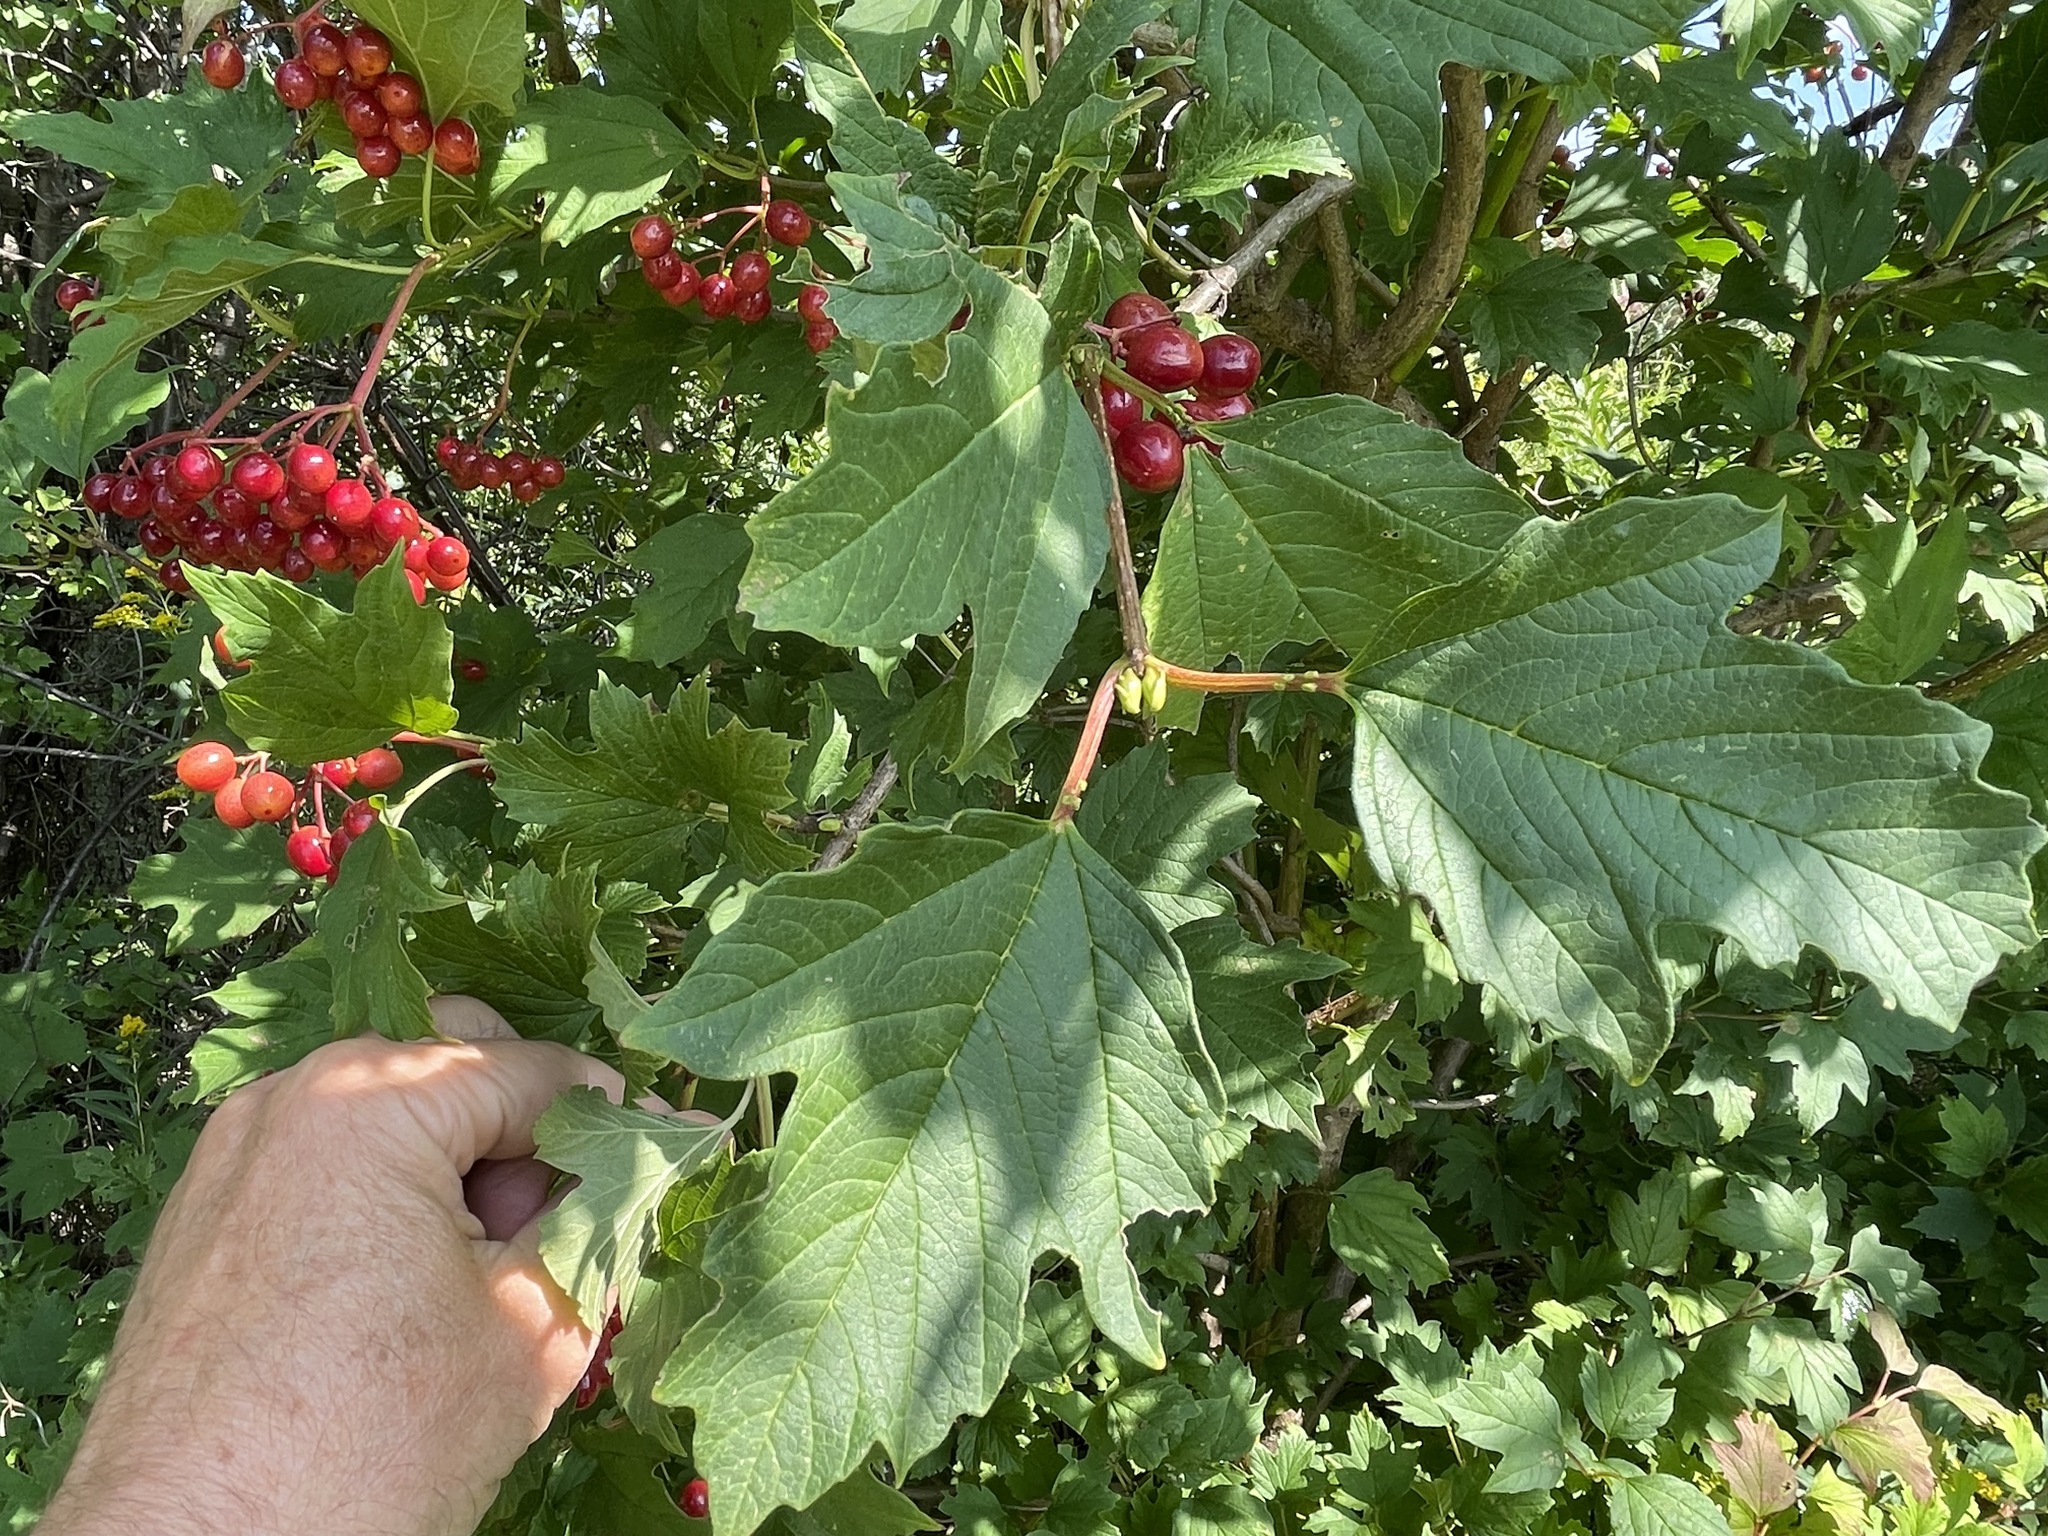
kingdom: Plantae
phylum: Tracheophyta
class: Magnoliopsida
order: Dipsacales
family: Viburnaceae
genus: Viburnum
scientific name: Viburnum opulus
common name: Guelder-rose
